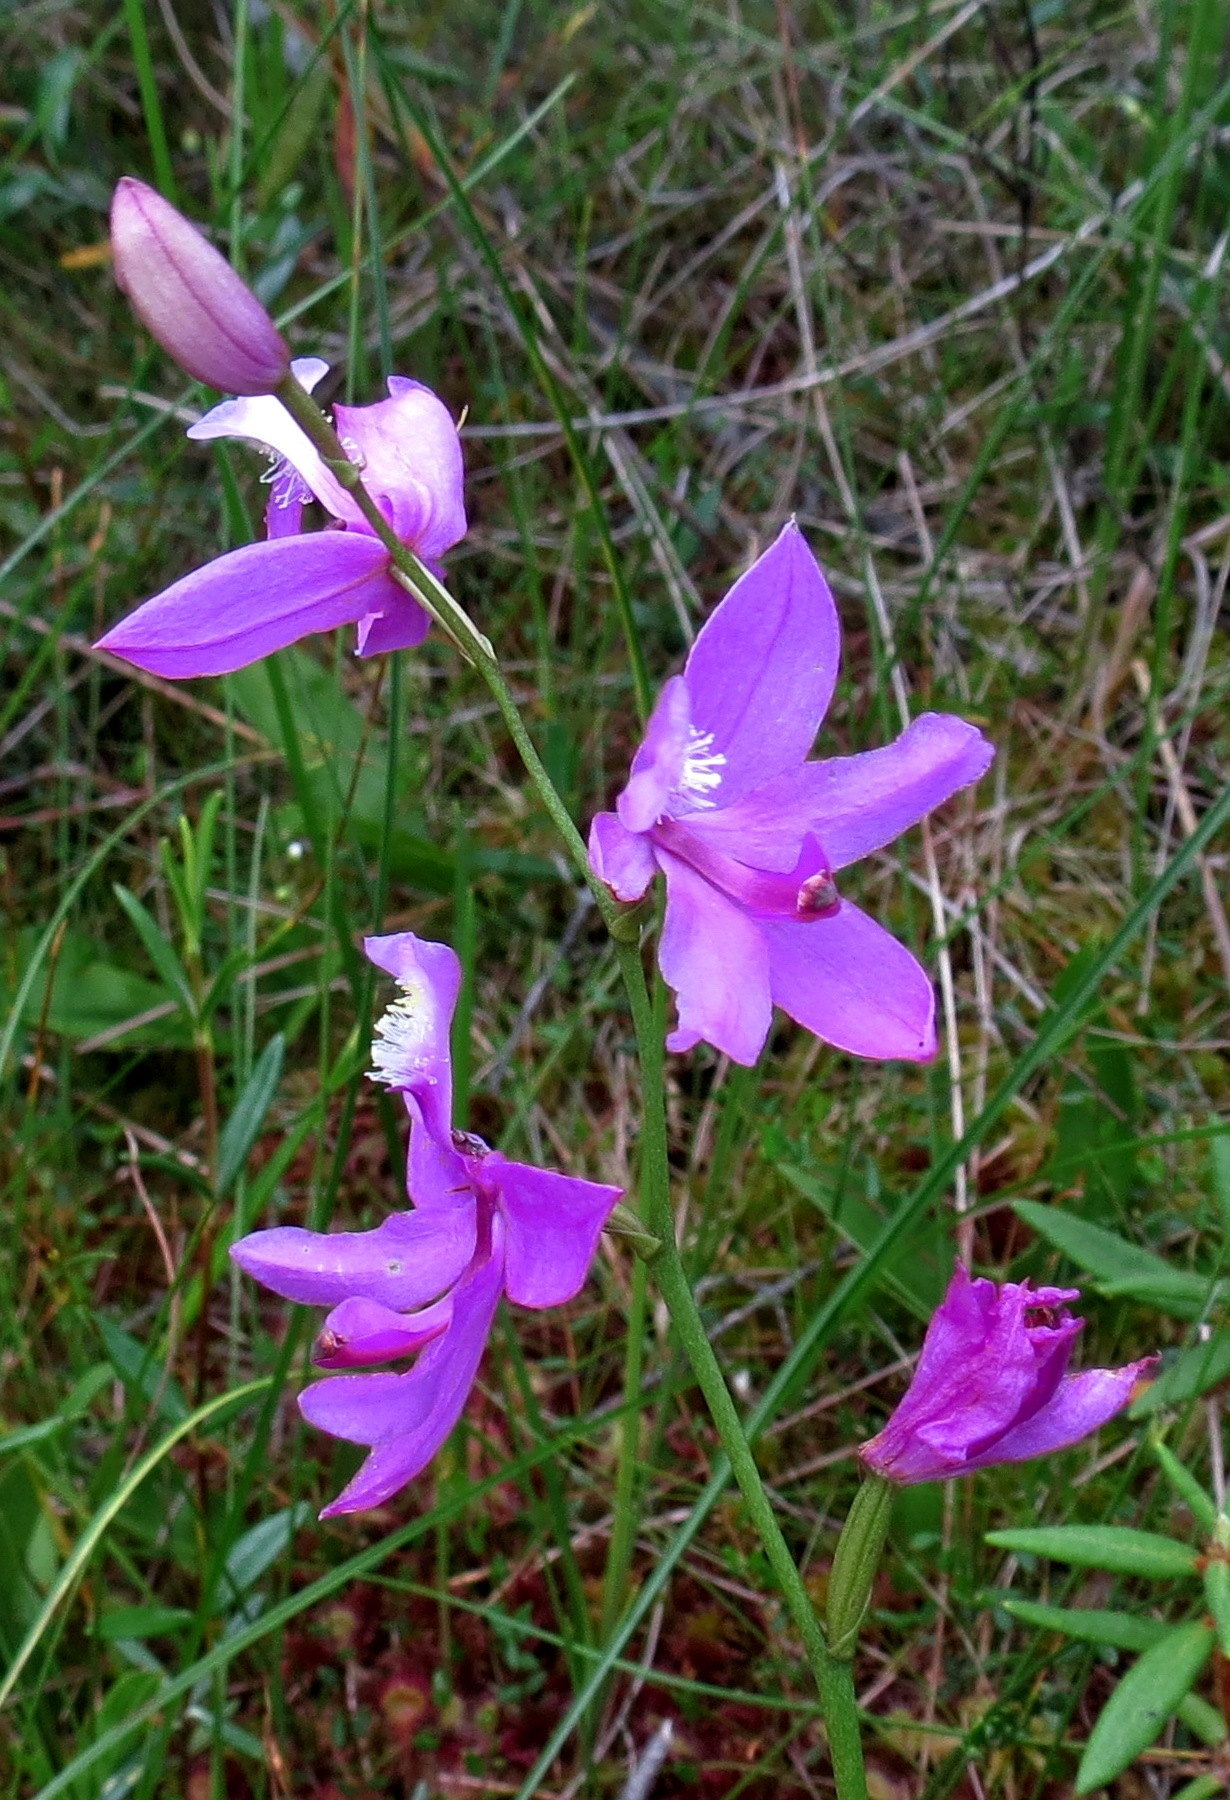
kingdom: Plantae
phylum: Tracheophyta
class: Liliopsida
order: Asparagales
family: Orchidaceae
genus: Calopogon
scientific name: Calopogon tuberosus
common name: Grass-pink
